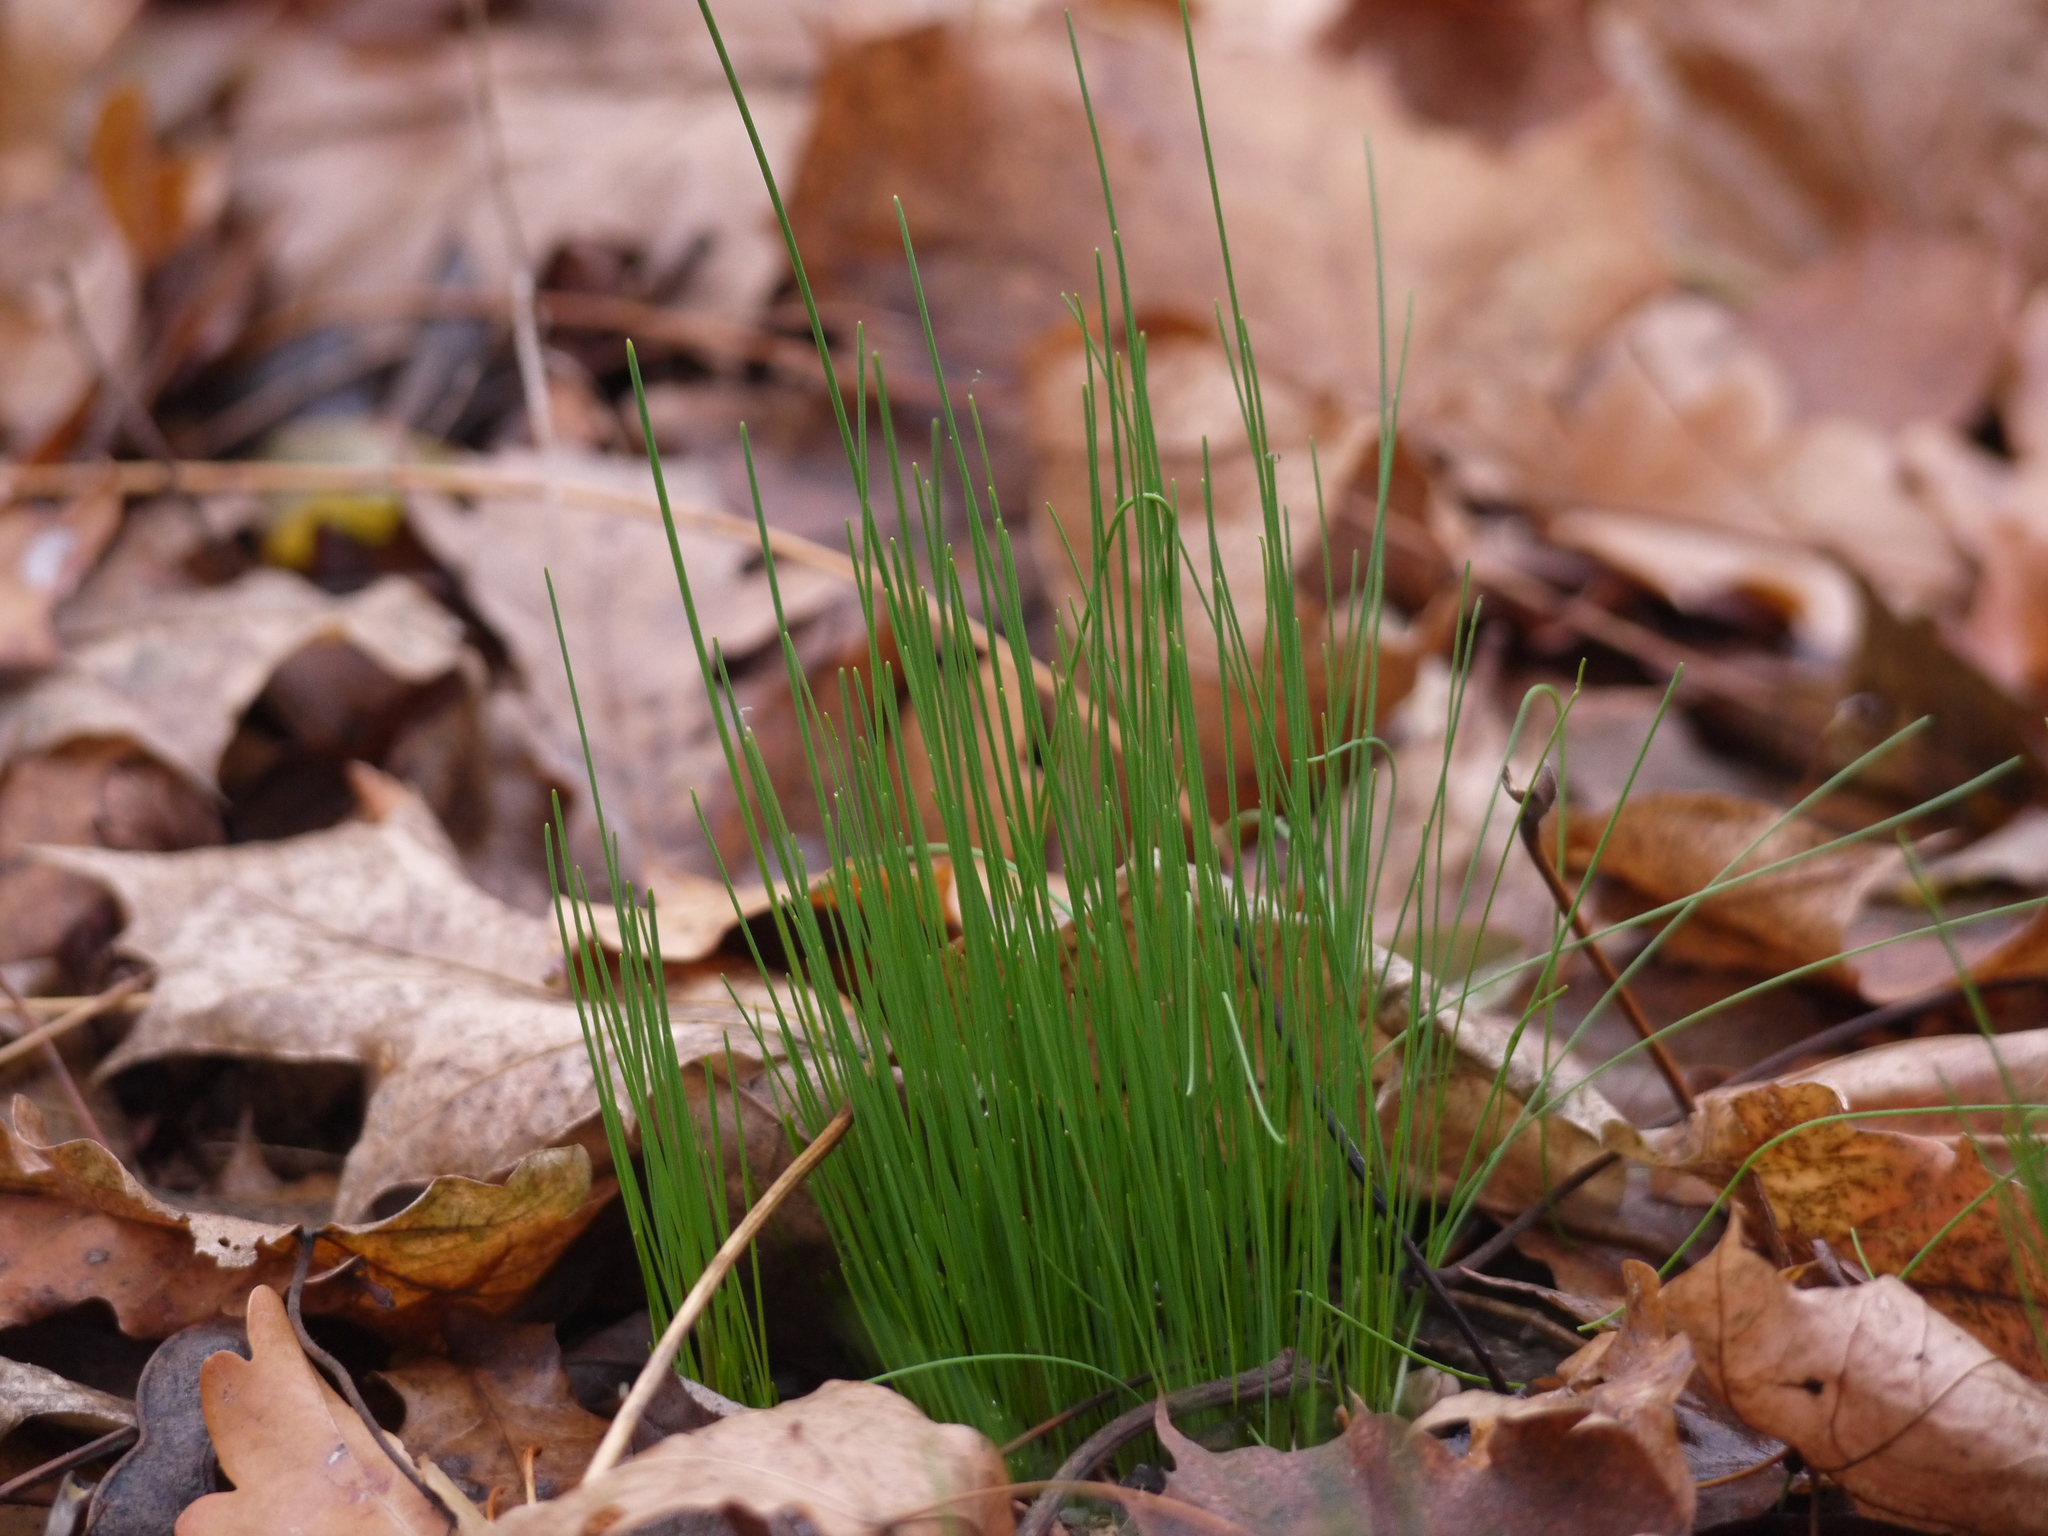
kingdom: Plantae
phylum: Tracheophyta
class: Liliopsida
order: Asparagales
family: Amaryllidaceae
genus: Allium
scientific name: Allium schoenoprasum
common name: Chives
